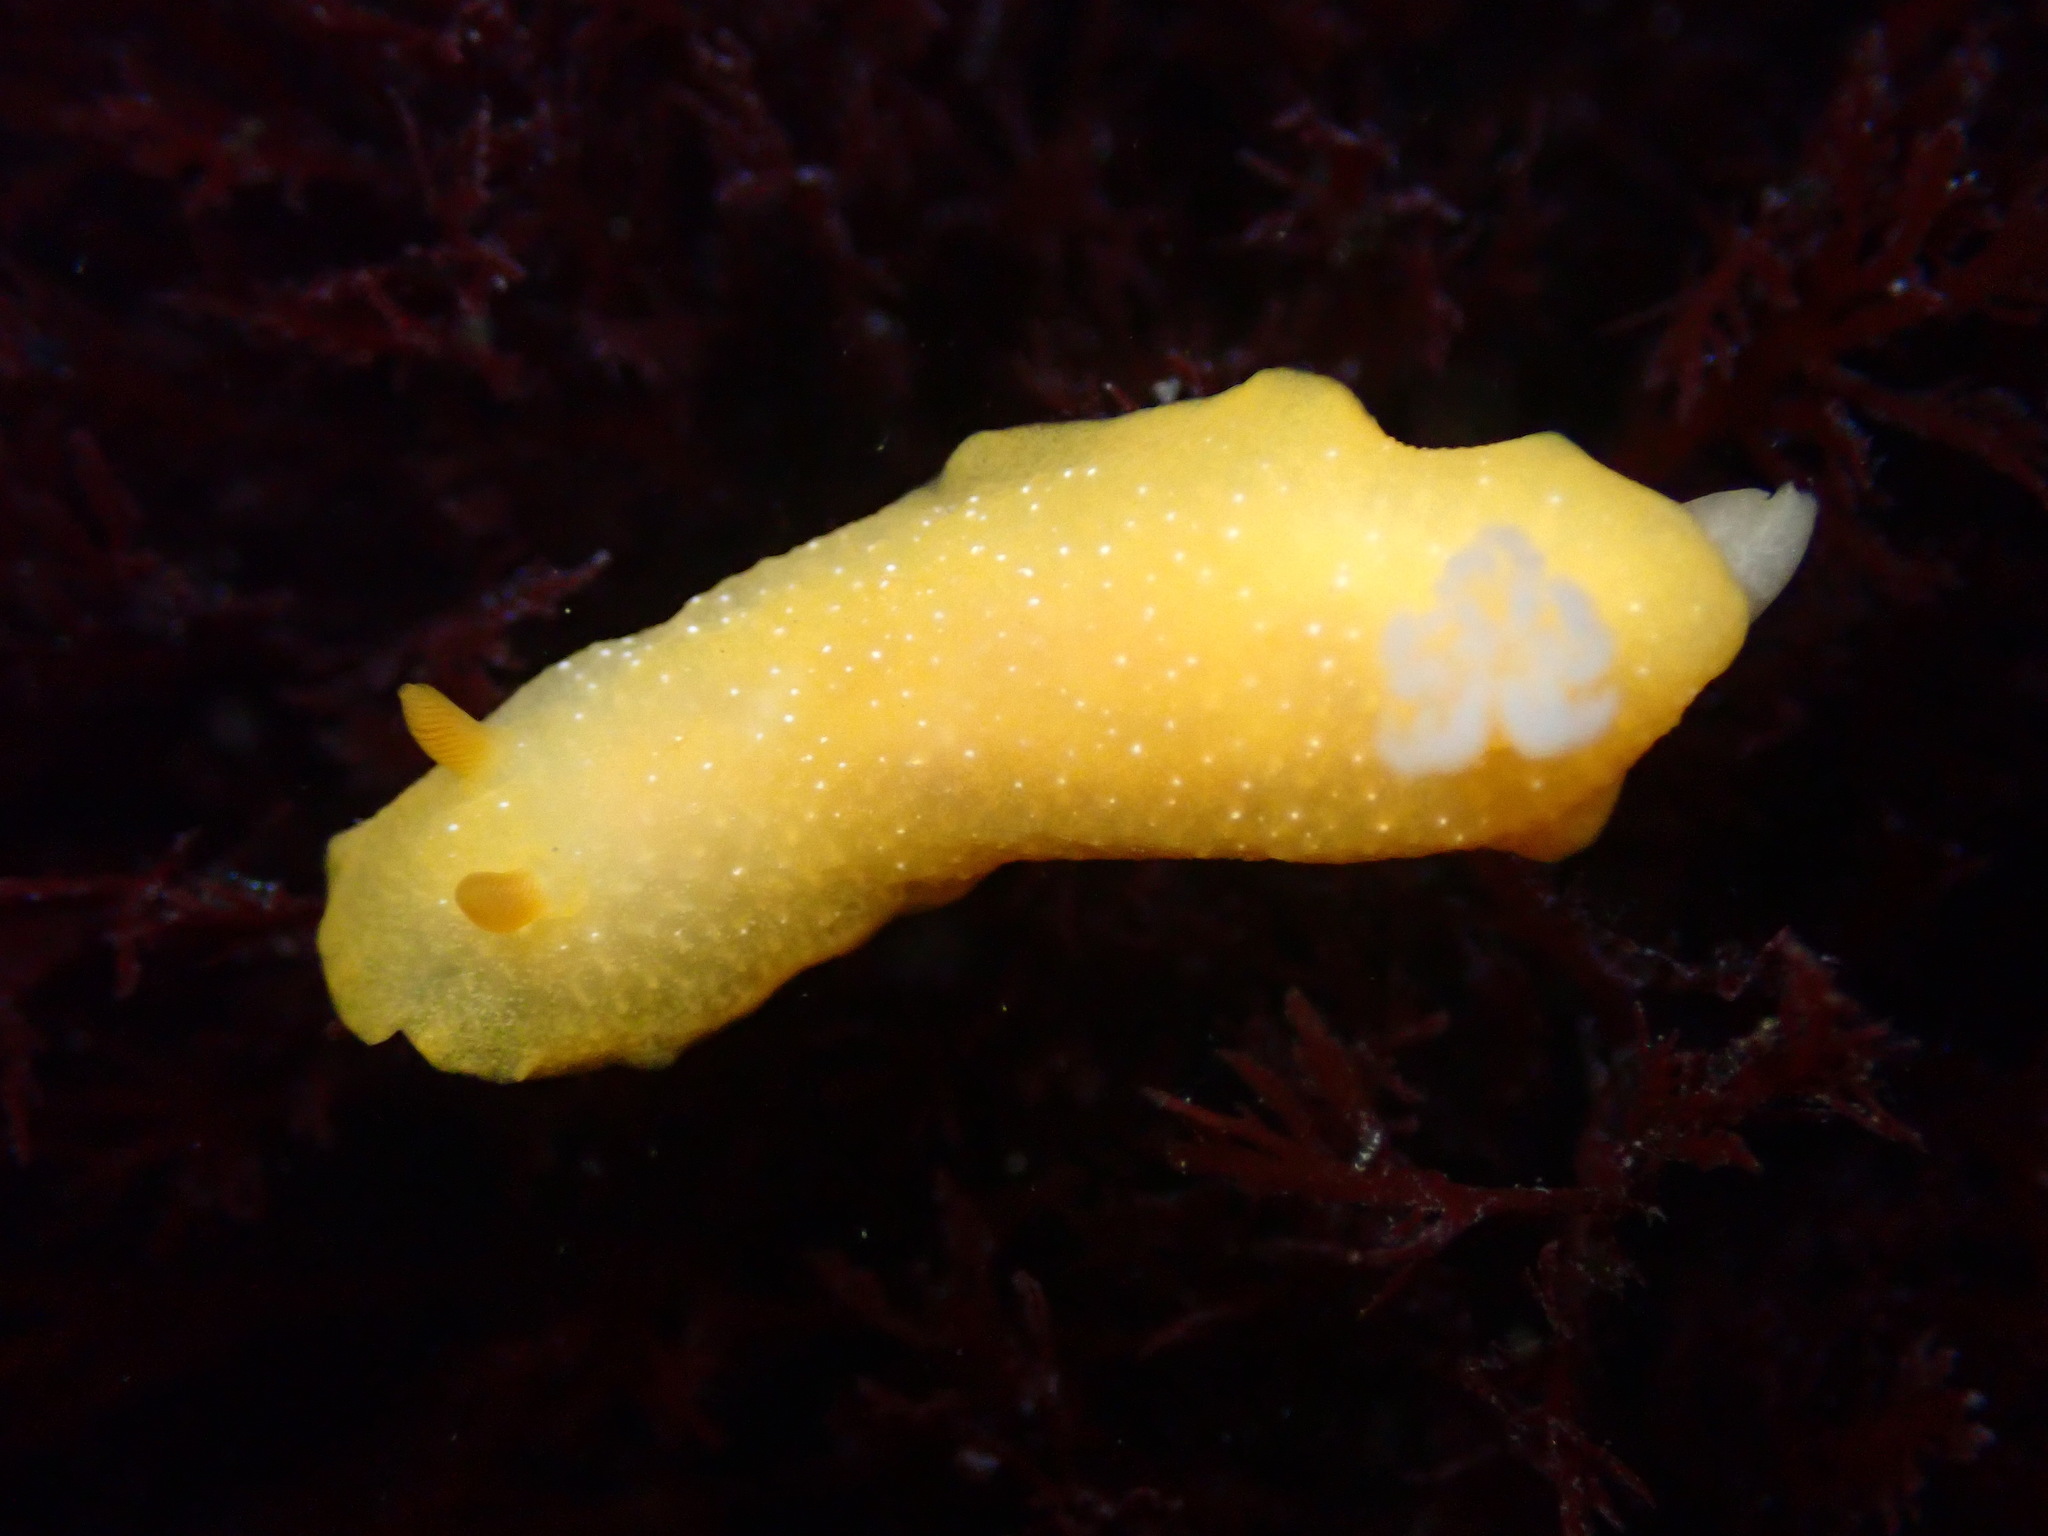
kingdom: Animalia
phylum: Mollusca
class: Gastropoda
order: Nudibranchia
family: Dendrodorididae
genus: Doriopsilla
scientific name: Doriopsilla fulva
